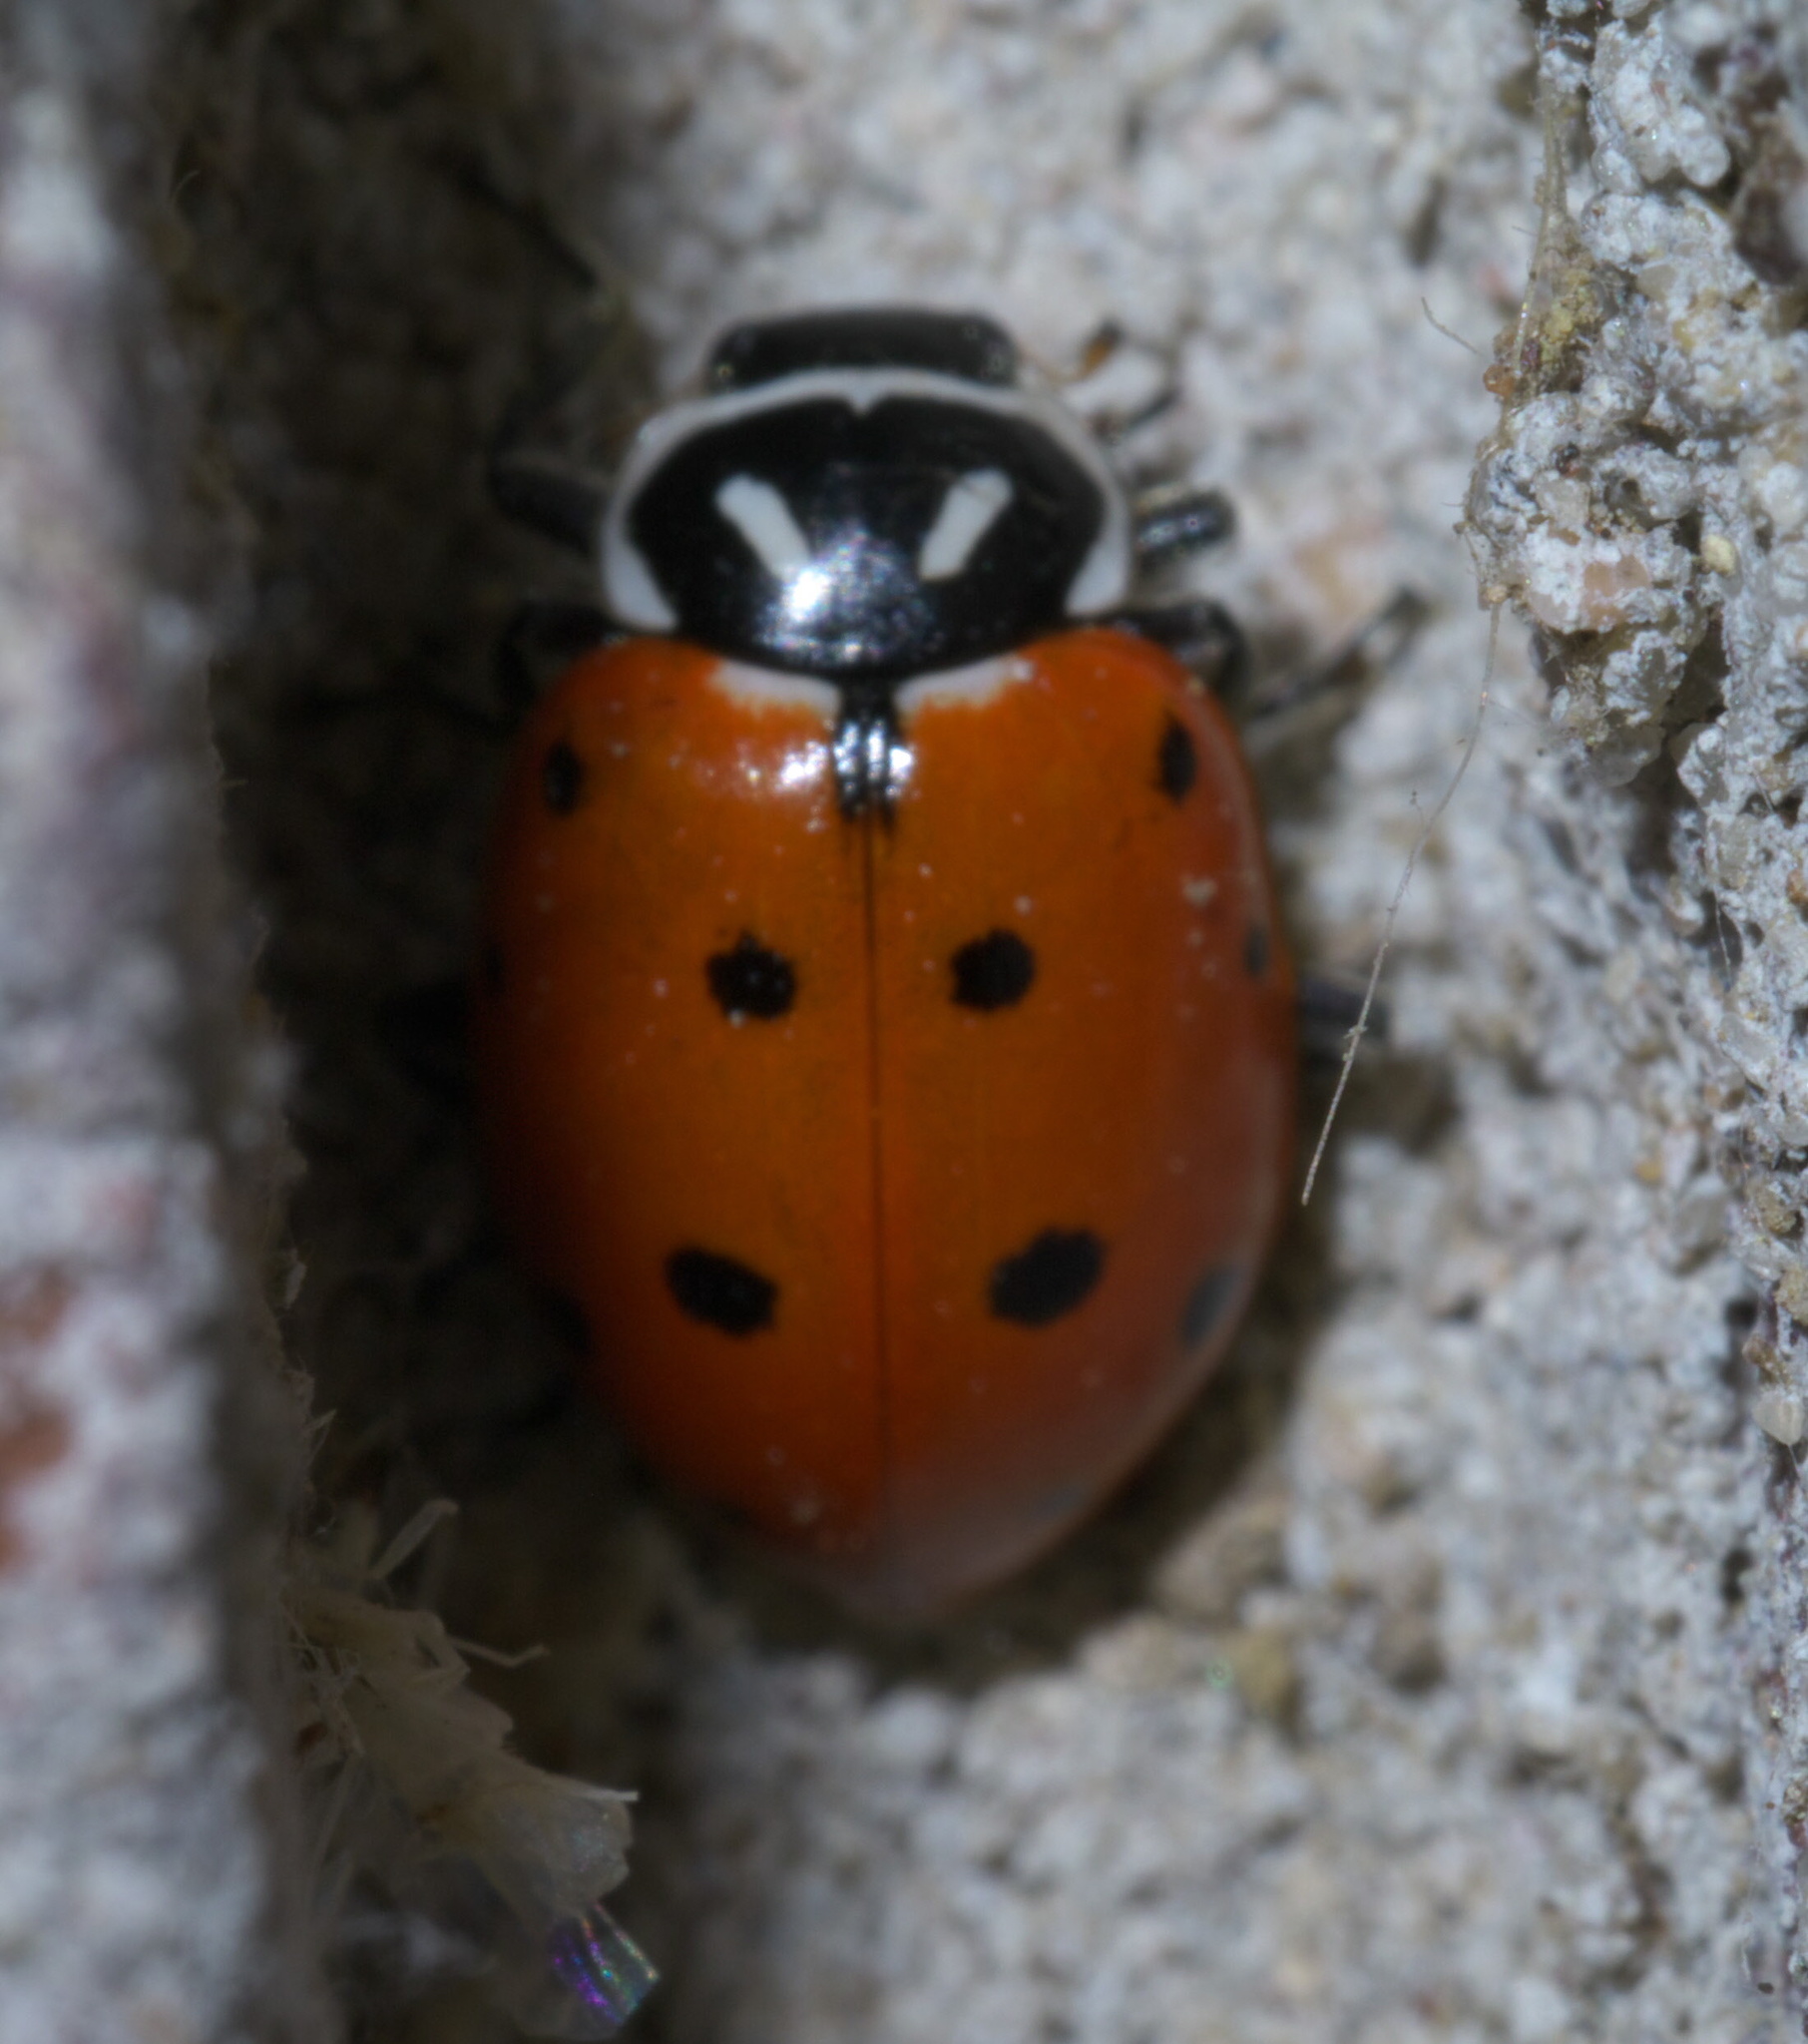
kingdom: Animalia
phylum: Arthropoda
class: Insecta
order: Coleoptera
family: Coccinellidae
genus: Hippodamia
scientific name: Hippodamia convergens
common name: Convergent lady beetle
